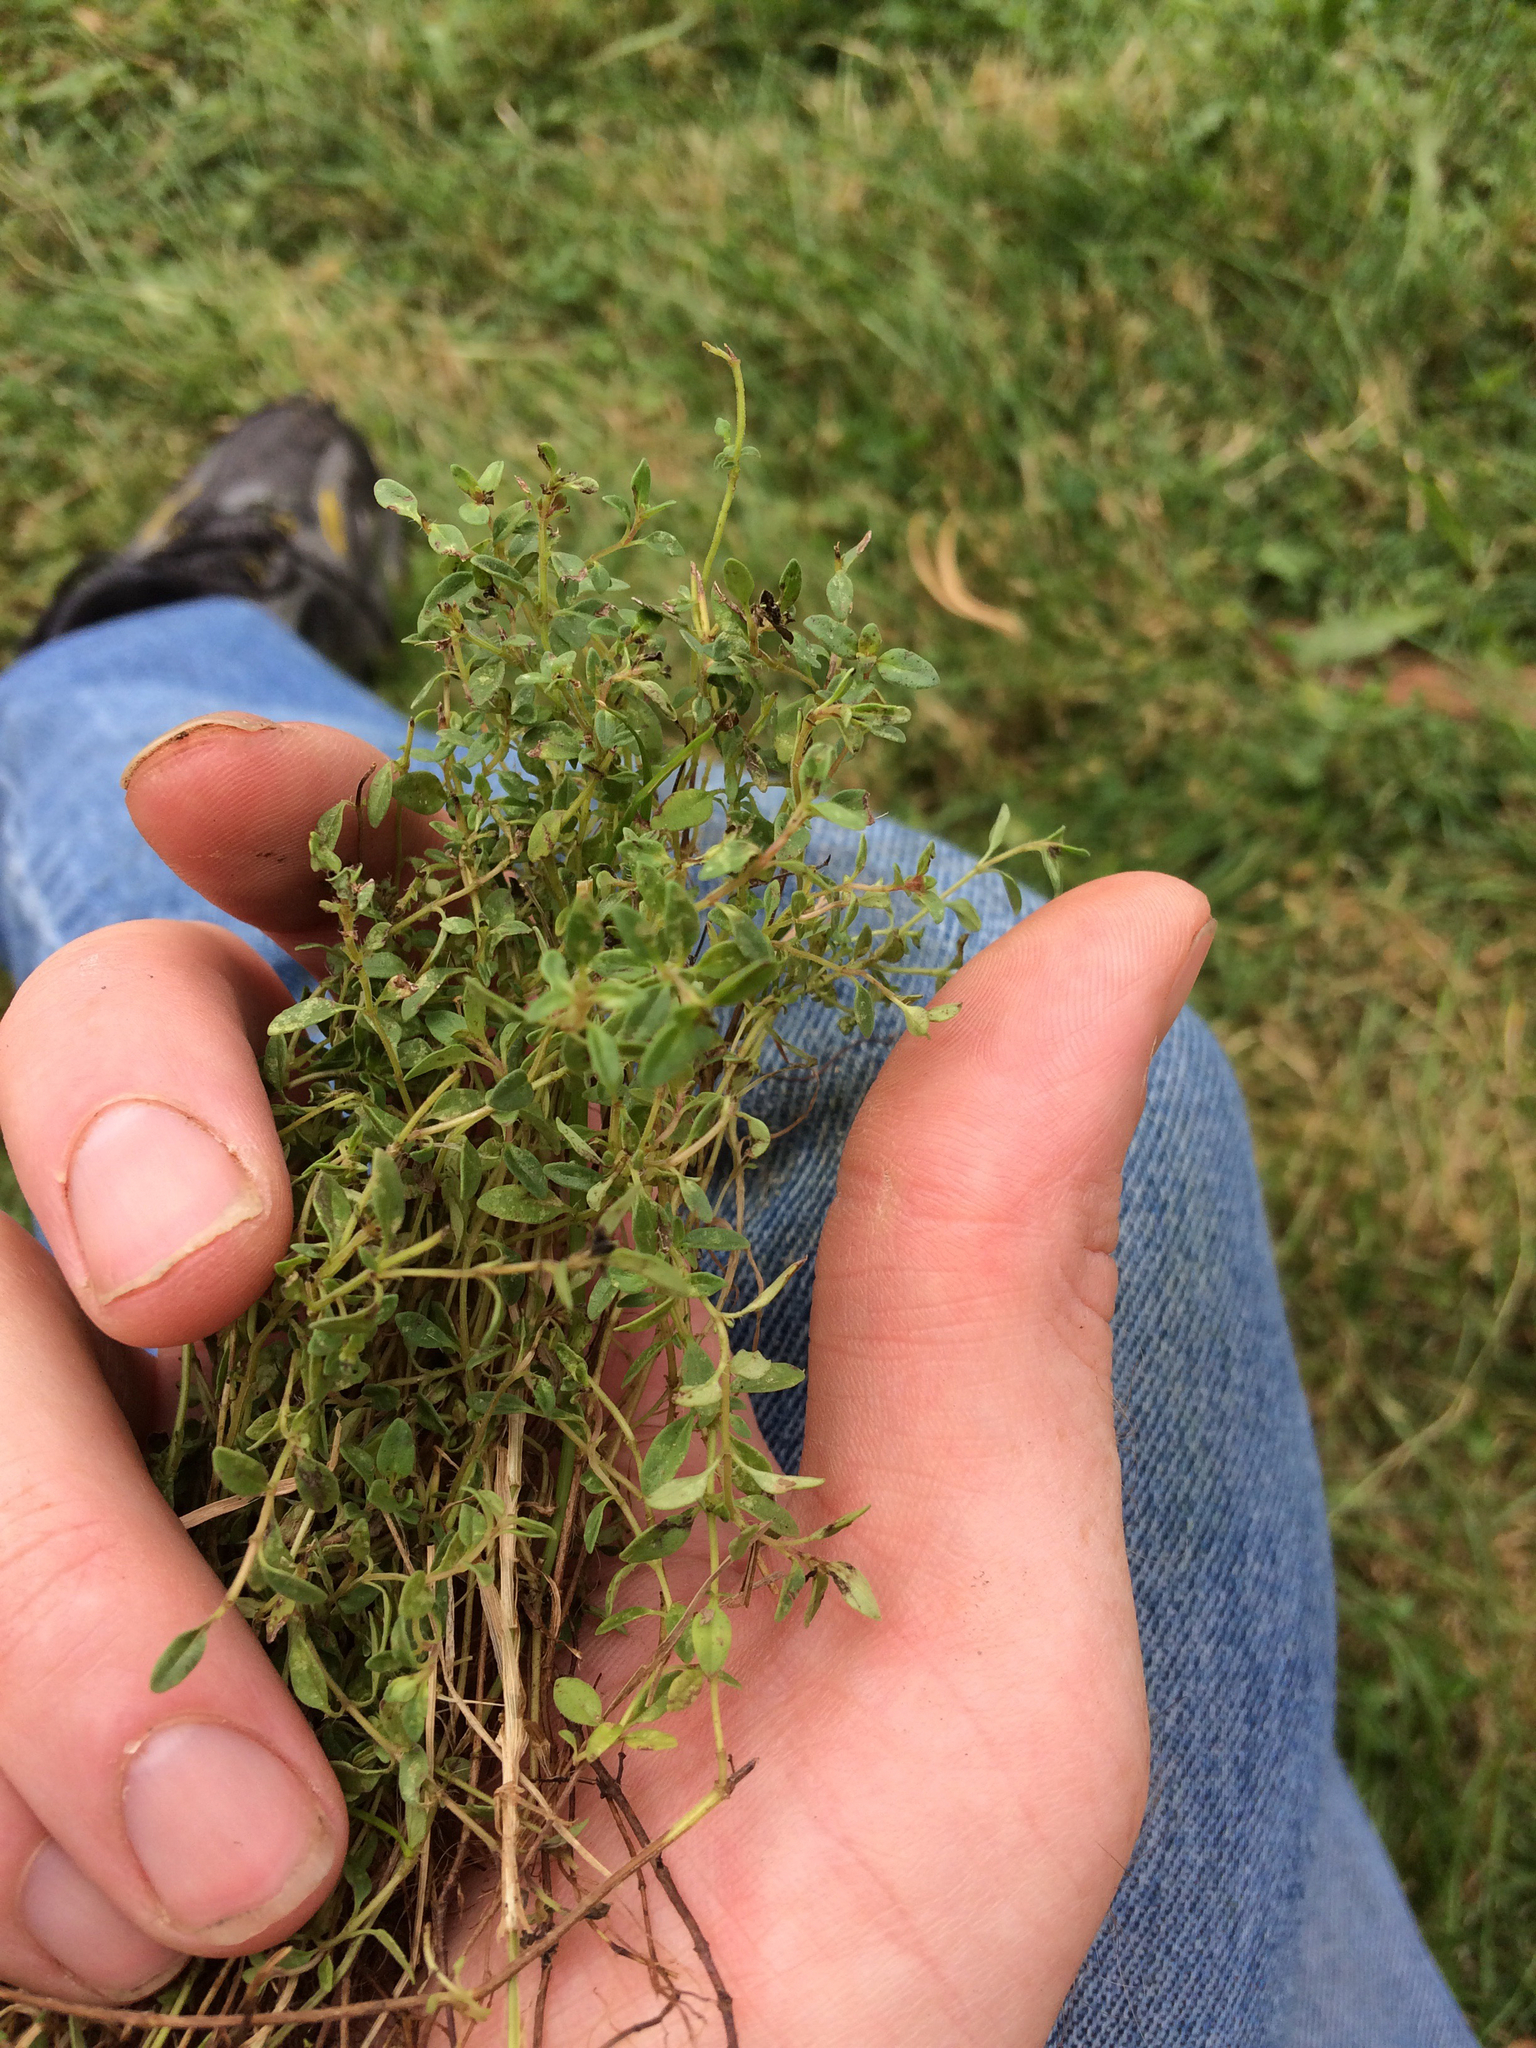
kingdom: Plantae
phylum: Tracheophyta
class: Magnoliopsida
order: Lamiales
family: Lamiaceae
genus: Thymus
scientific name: Thymus pulegioides
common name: Large thyme
